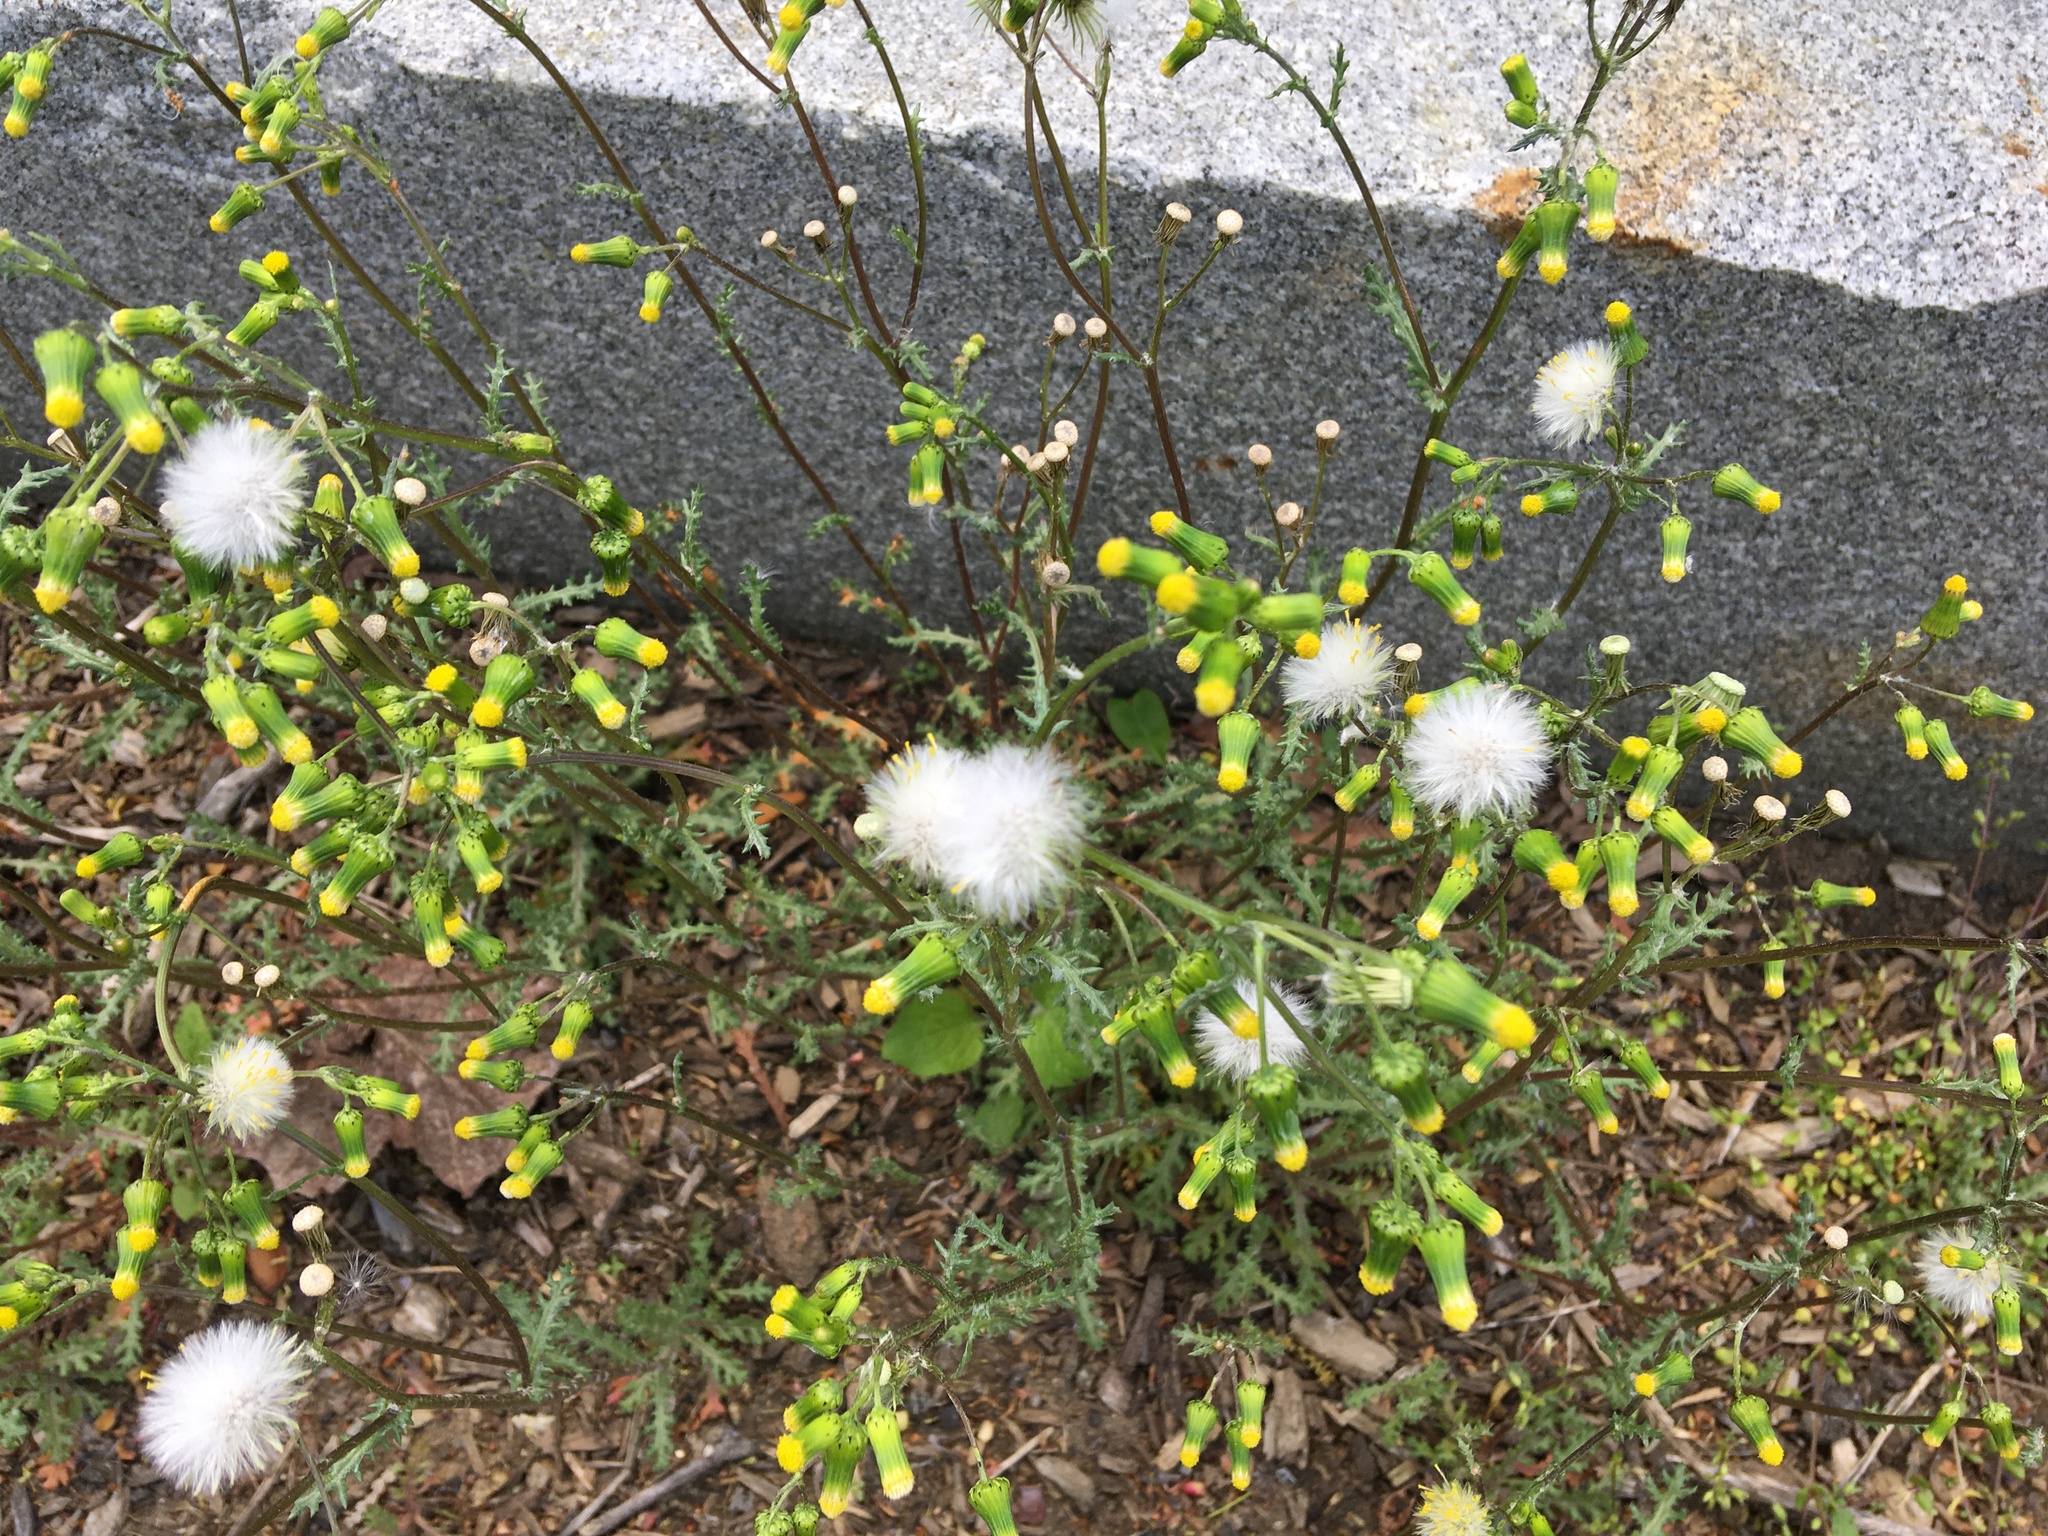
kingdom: Plantae
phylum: Tracheophyta
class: Magnoliopsida
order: Asterales
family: Asteraceae
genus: Senecio
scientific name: Senecio vulgaris
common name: Old-man-in-the-spring
